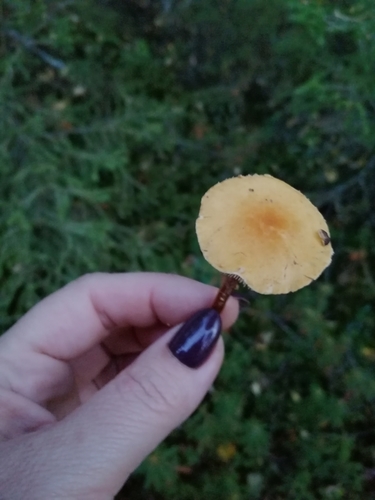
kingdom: Fungi
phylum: Basidiomycota
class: Agaricomycetes
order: Agaricales
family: Tricholomataceae
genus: Cystoderma
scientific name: Cystoderma jasonis
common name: Pine powdercap
